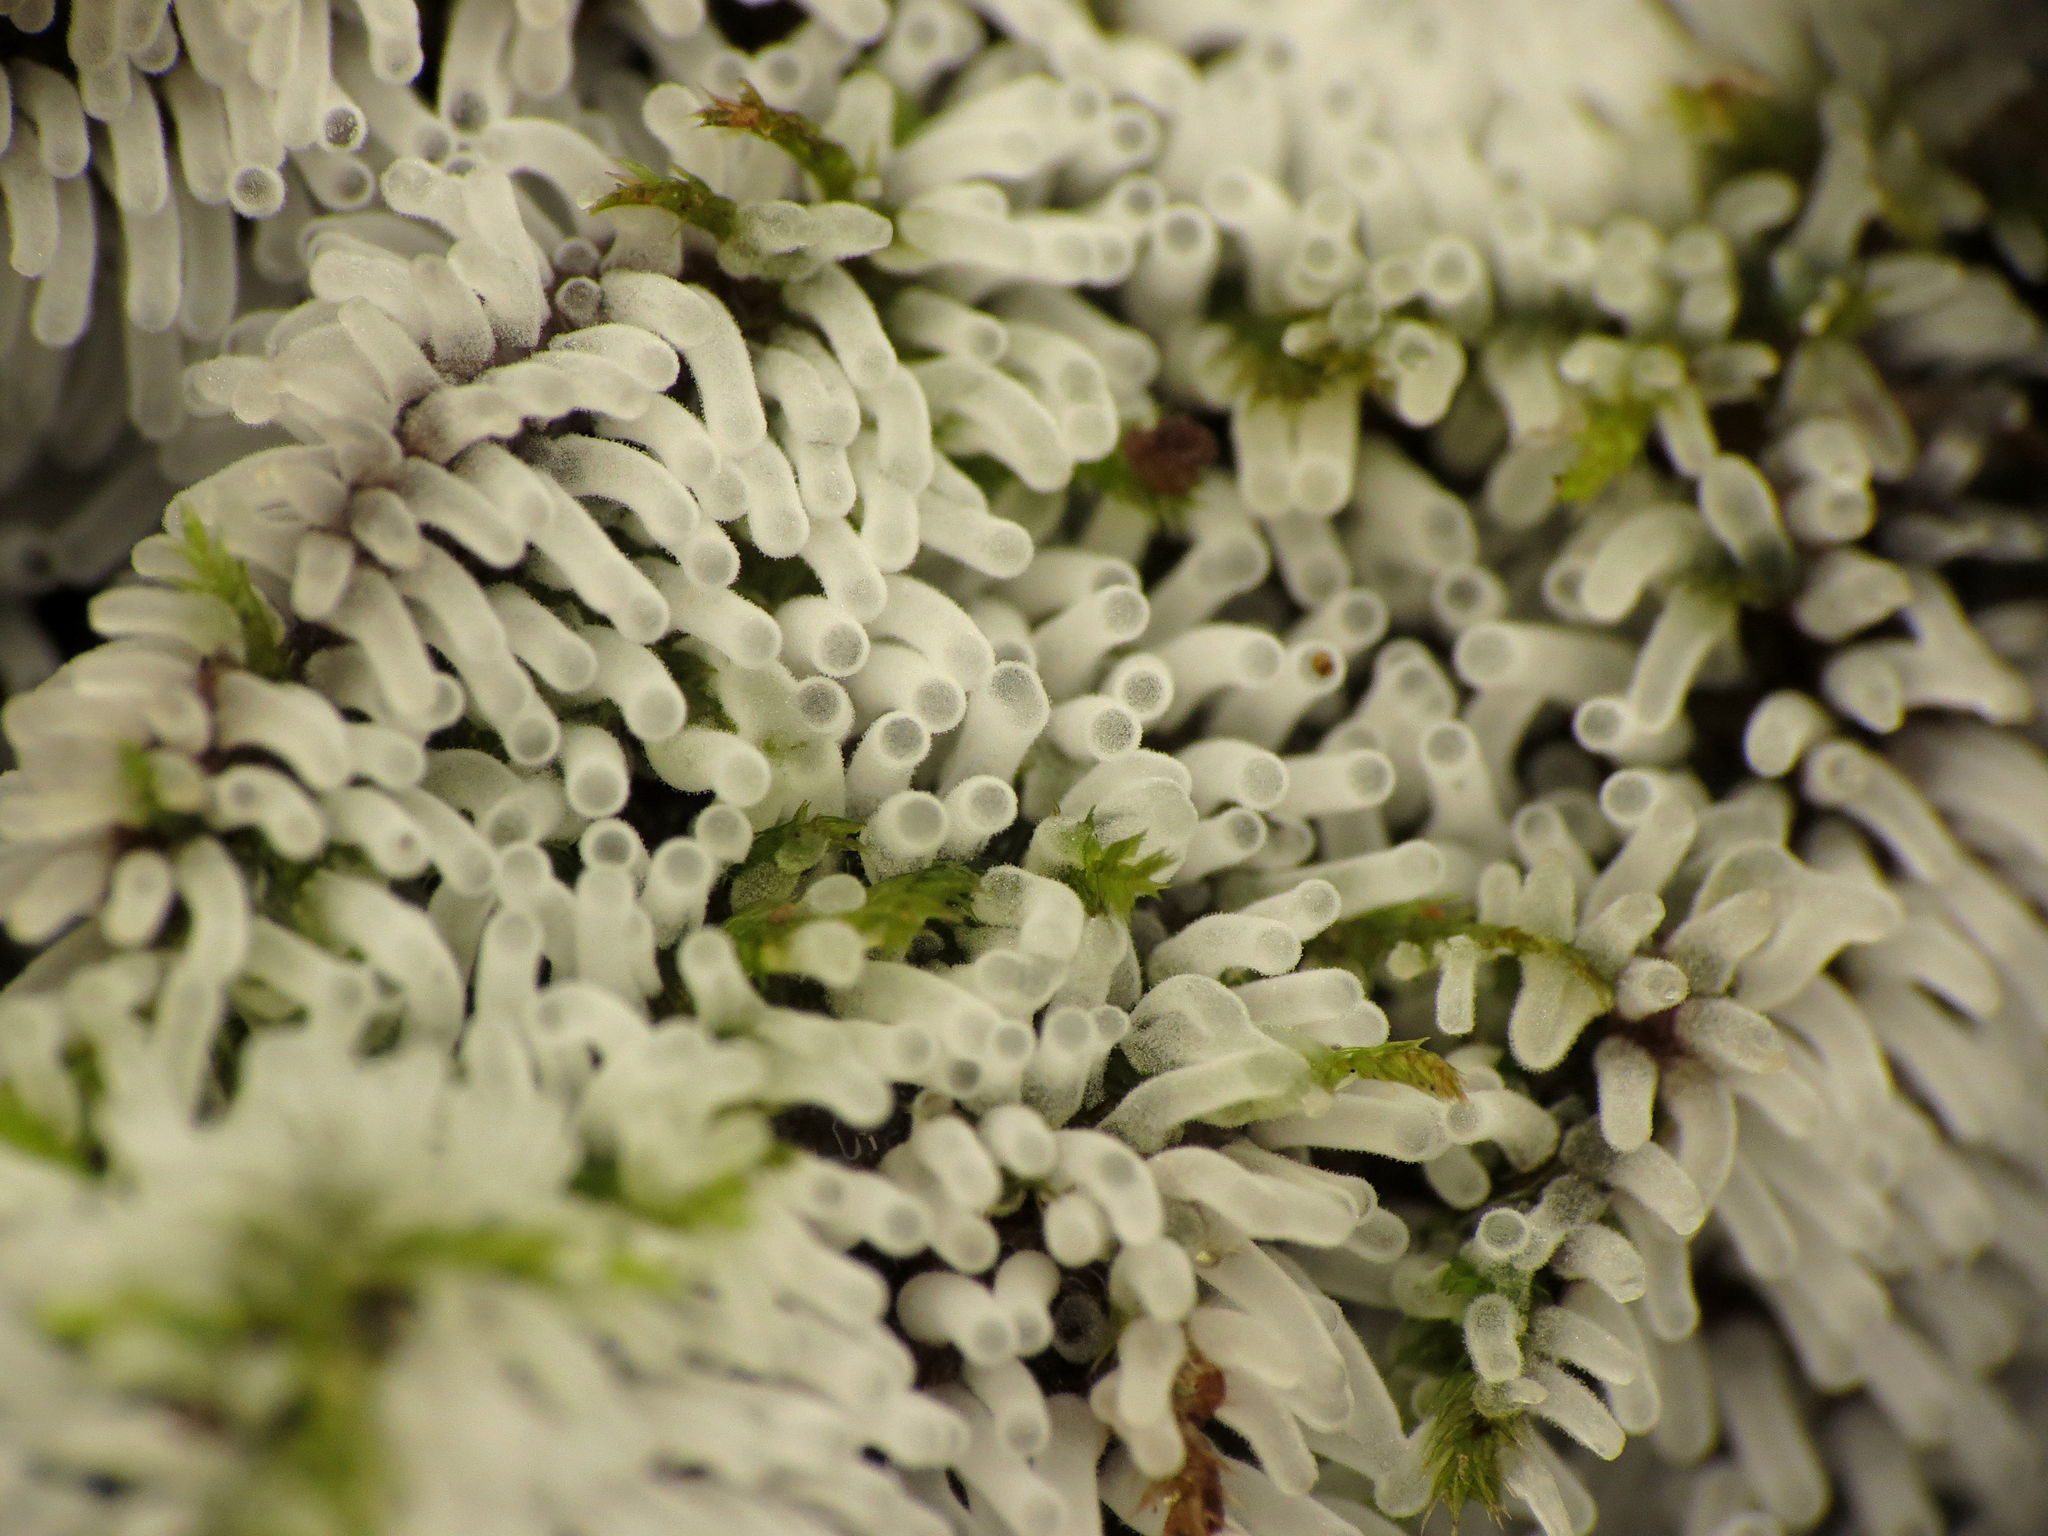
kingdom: Protozoa
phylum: Mycetozoa
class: Protosteliomycetes
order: Ceratiomyxales
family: Ceratiomyxaceae
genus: Ceratiomyxa
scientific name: Ceratiomyxa fruticulosa
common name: Honeycomb coral slime mold
